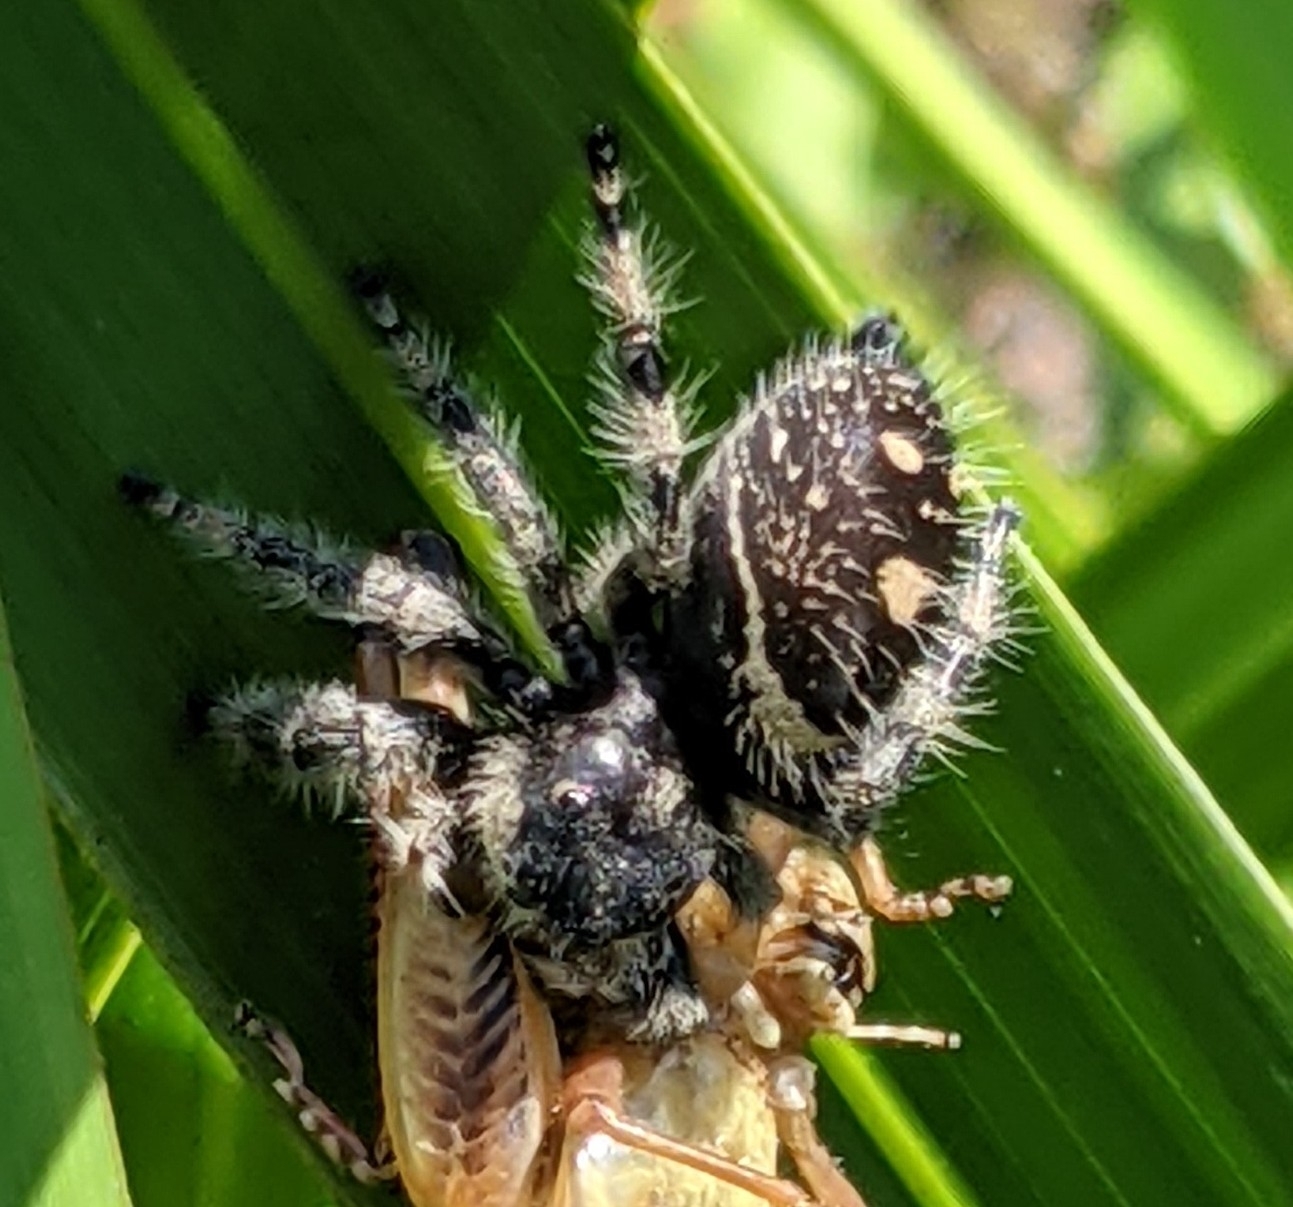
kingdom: Animalia
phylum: Arthropoda
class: Arachnida
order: Araneae
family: Salticidae
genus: Phidippus
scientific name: Phidippus regius
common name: Regal jumper
